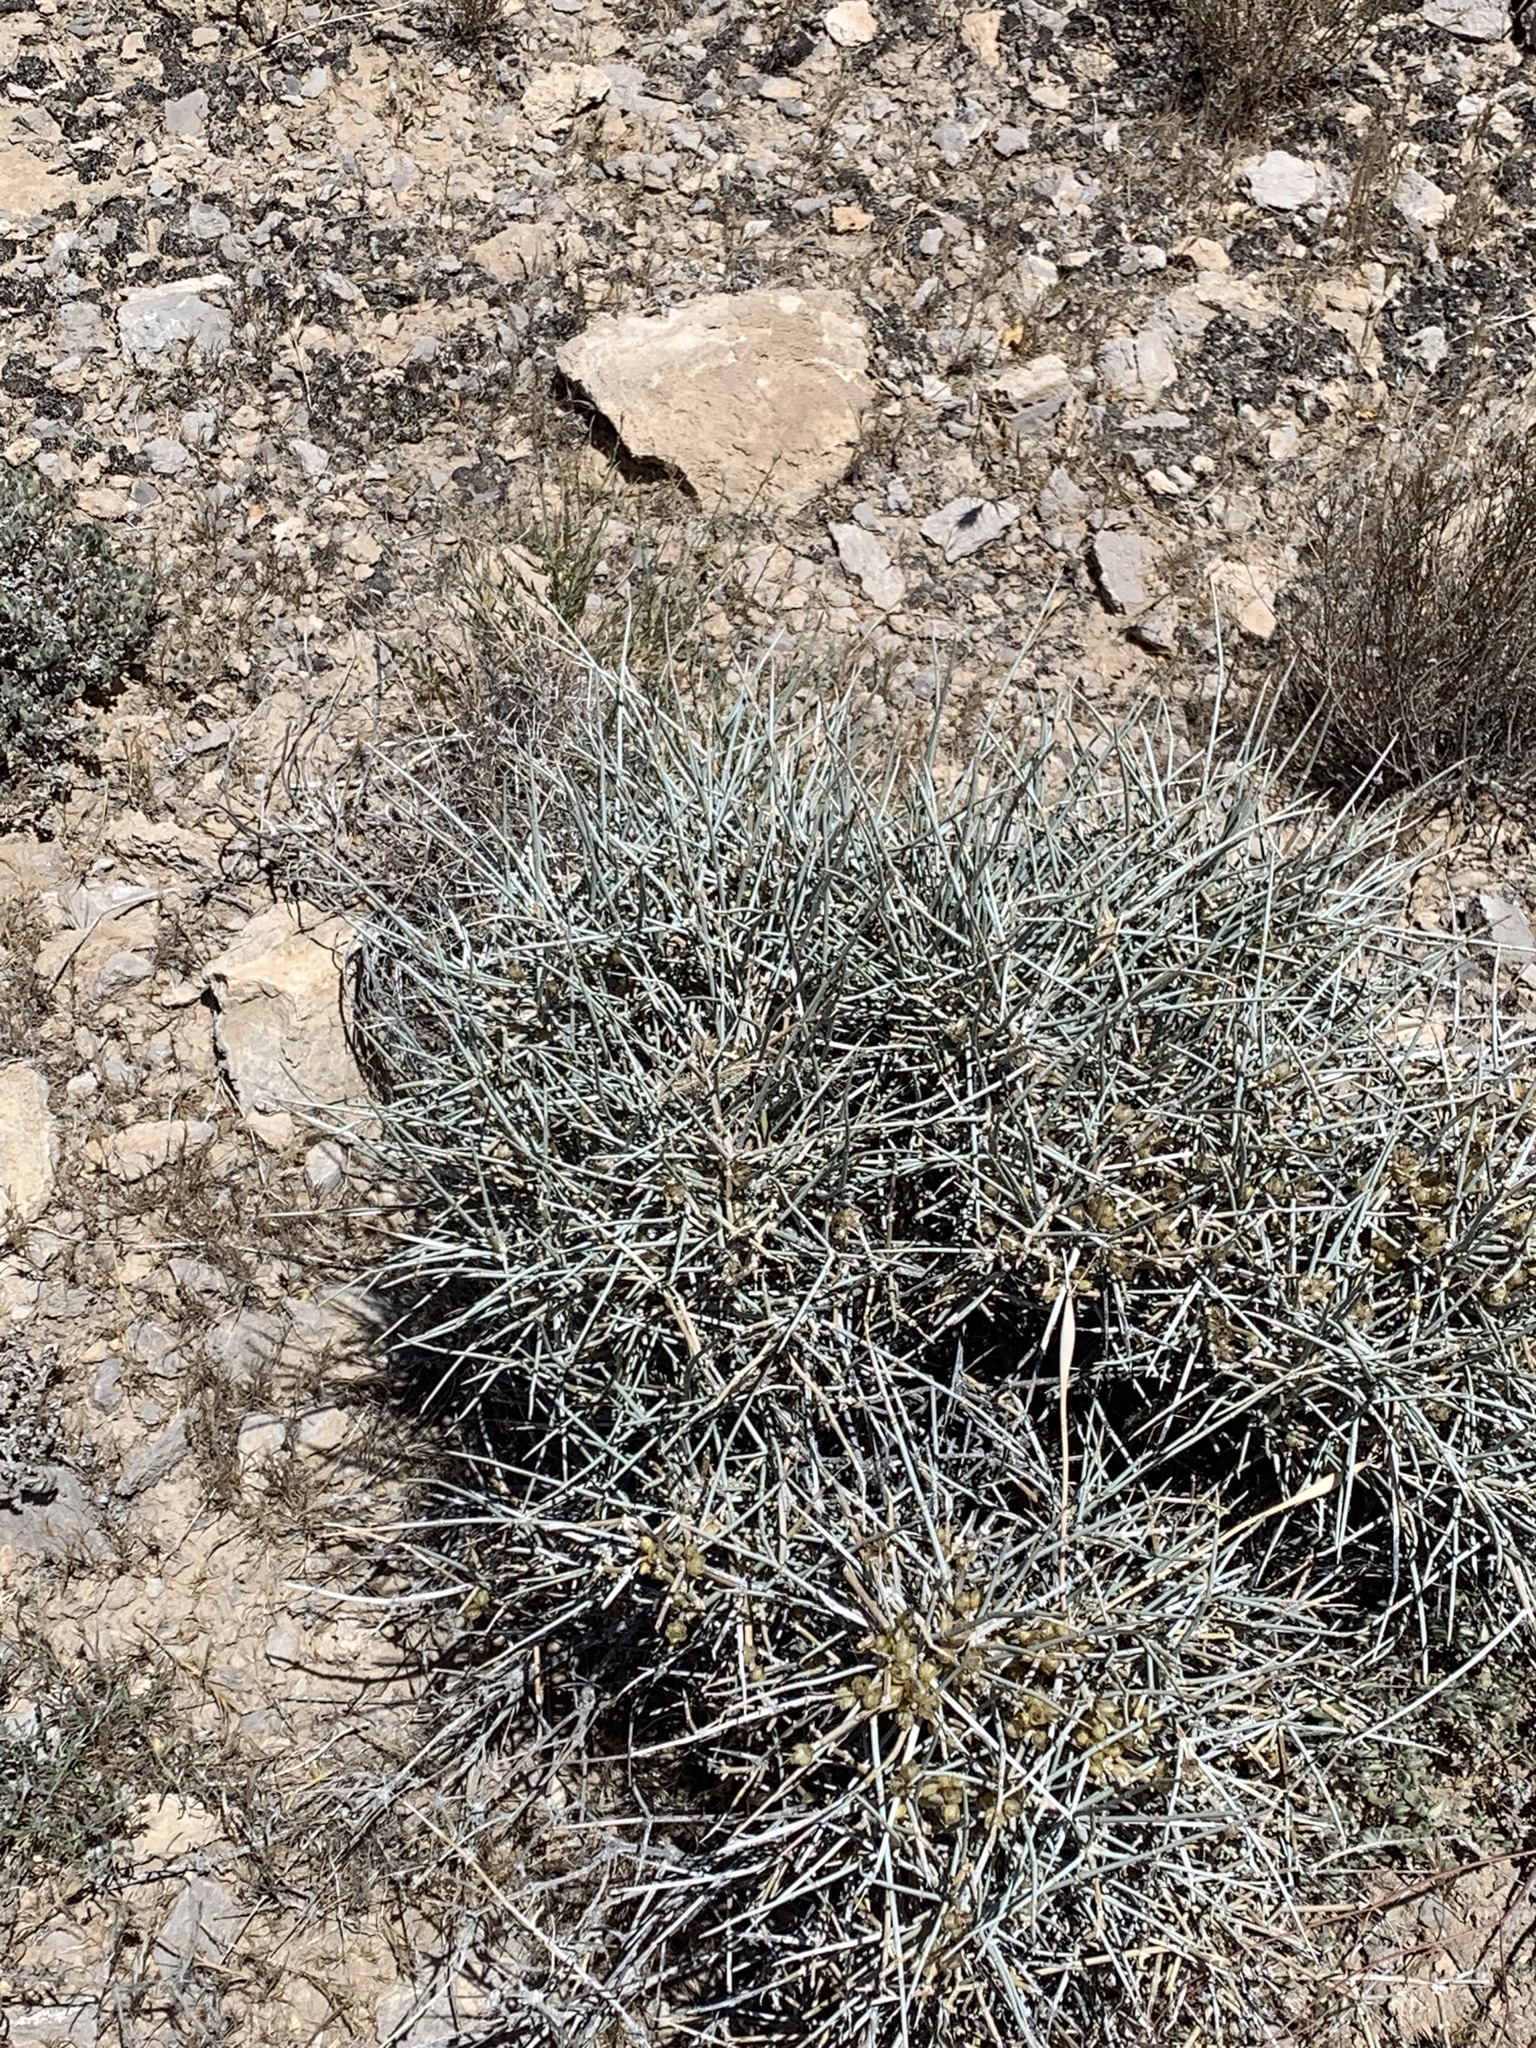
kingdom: Plantae
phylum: Tracheophyta
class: Gnetopsida
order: Ephedrales
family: Ephedraceae
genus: Ephedra
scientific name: Ephedra nevadensis
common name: Gray ephedra
